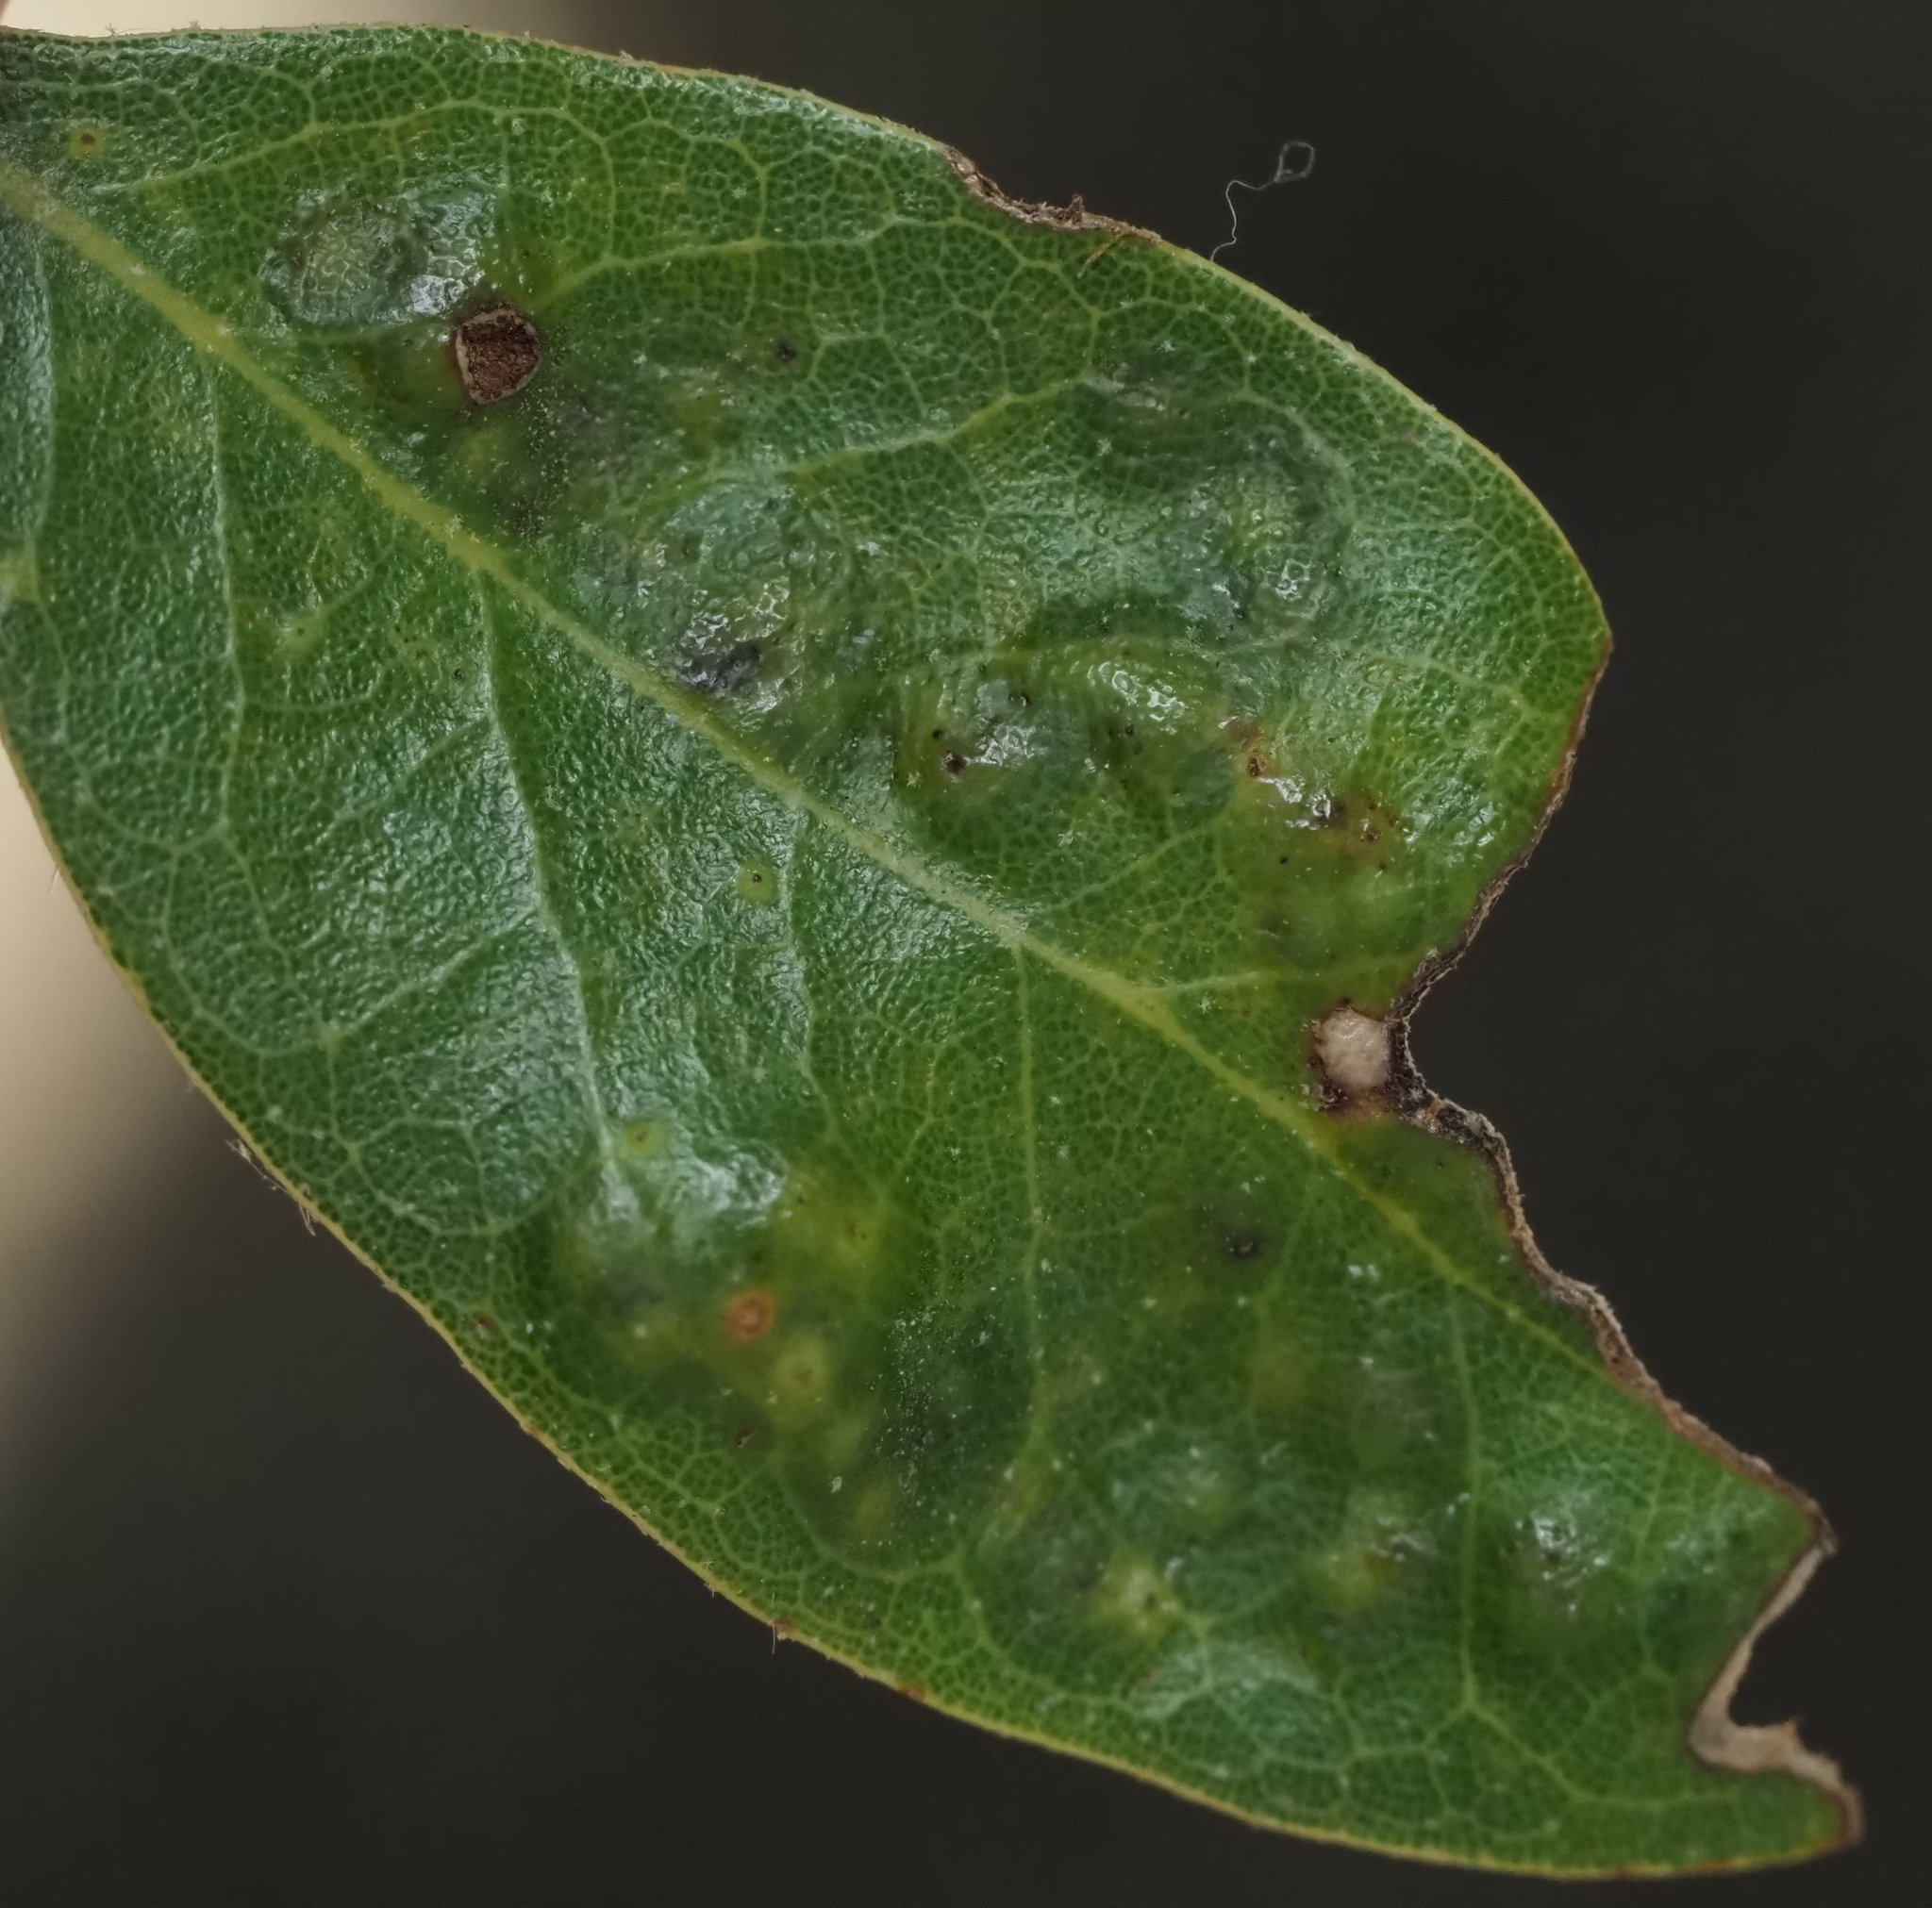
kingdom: Animalia
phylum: Arthropoda
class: Insecta
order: Hymenoptera
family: Cynipidae
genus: Neuroterus
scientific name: Neuroterus bussae
